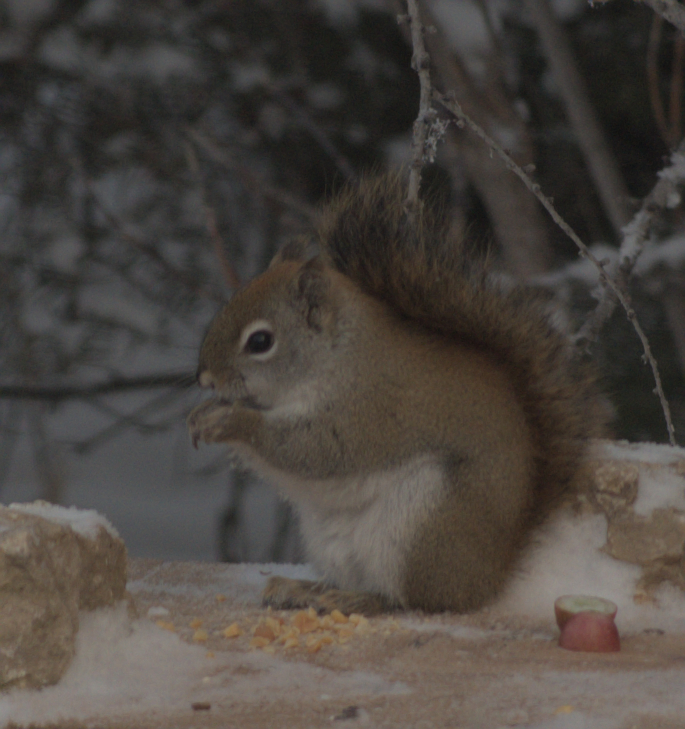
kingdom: Animalia
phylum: Chordata
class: Mammalia
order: Rodentia
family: Sciuridae
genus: Tamiasciurus
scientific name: Tamiasciurus hudsonicus
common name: Red squirrel
